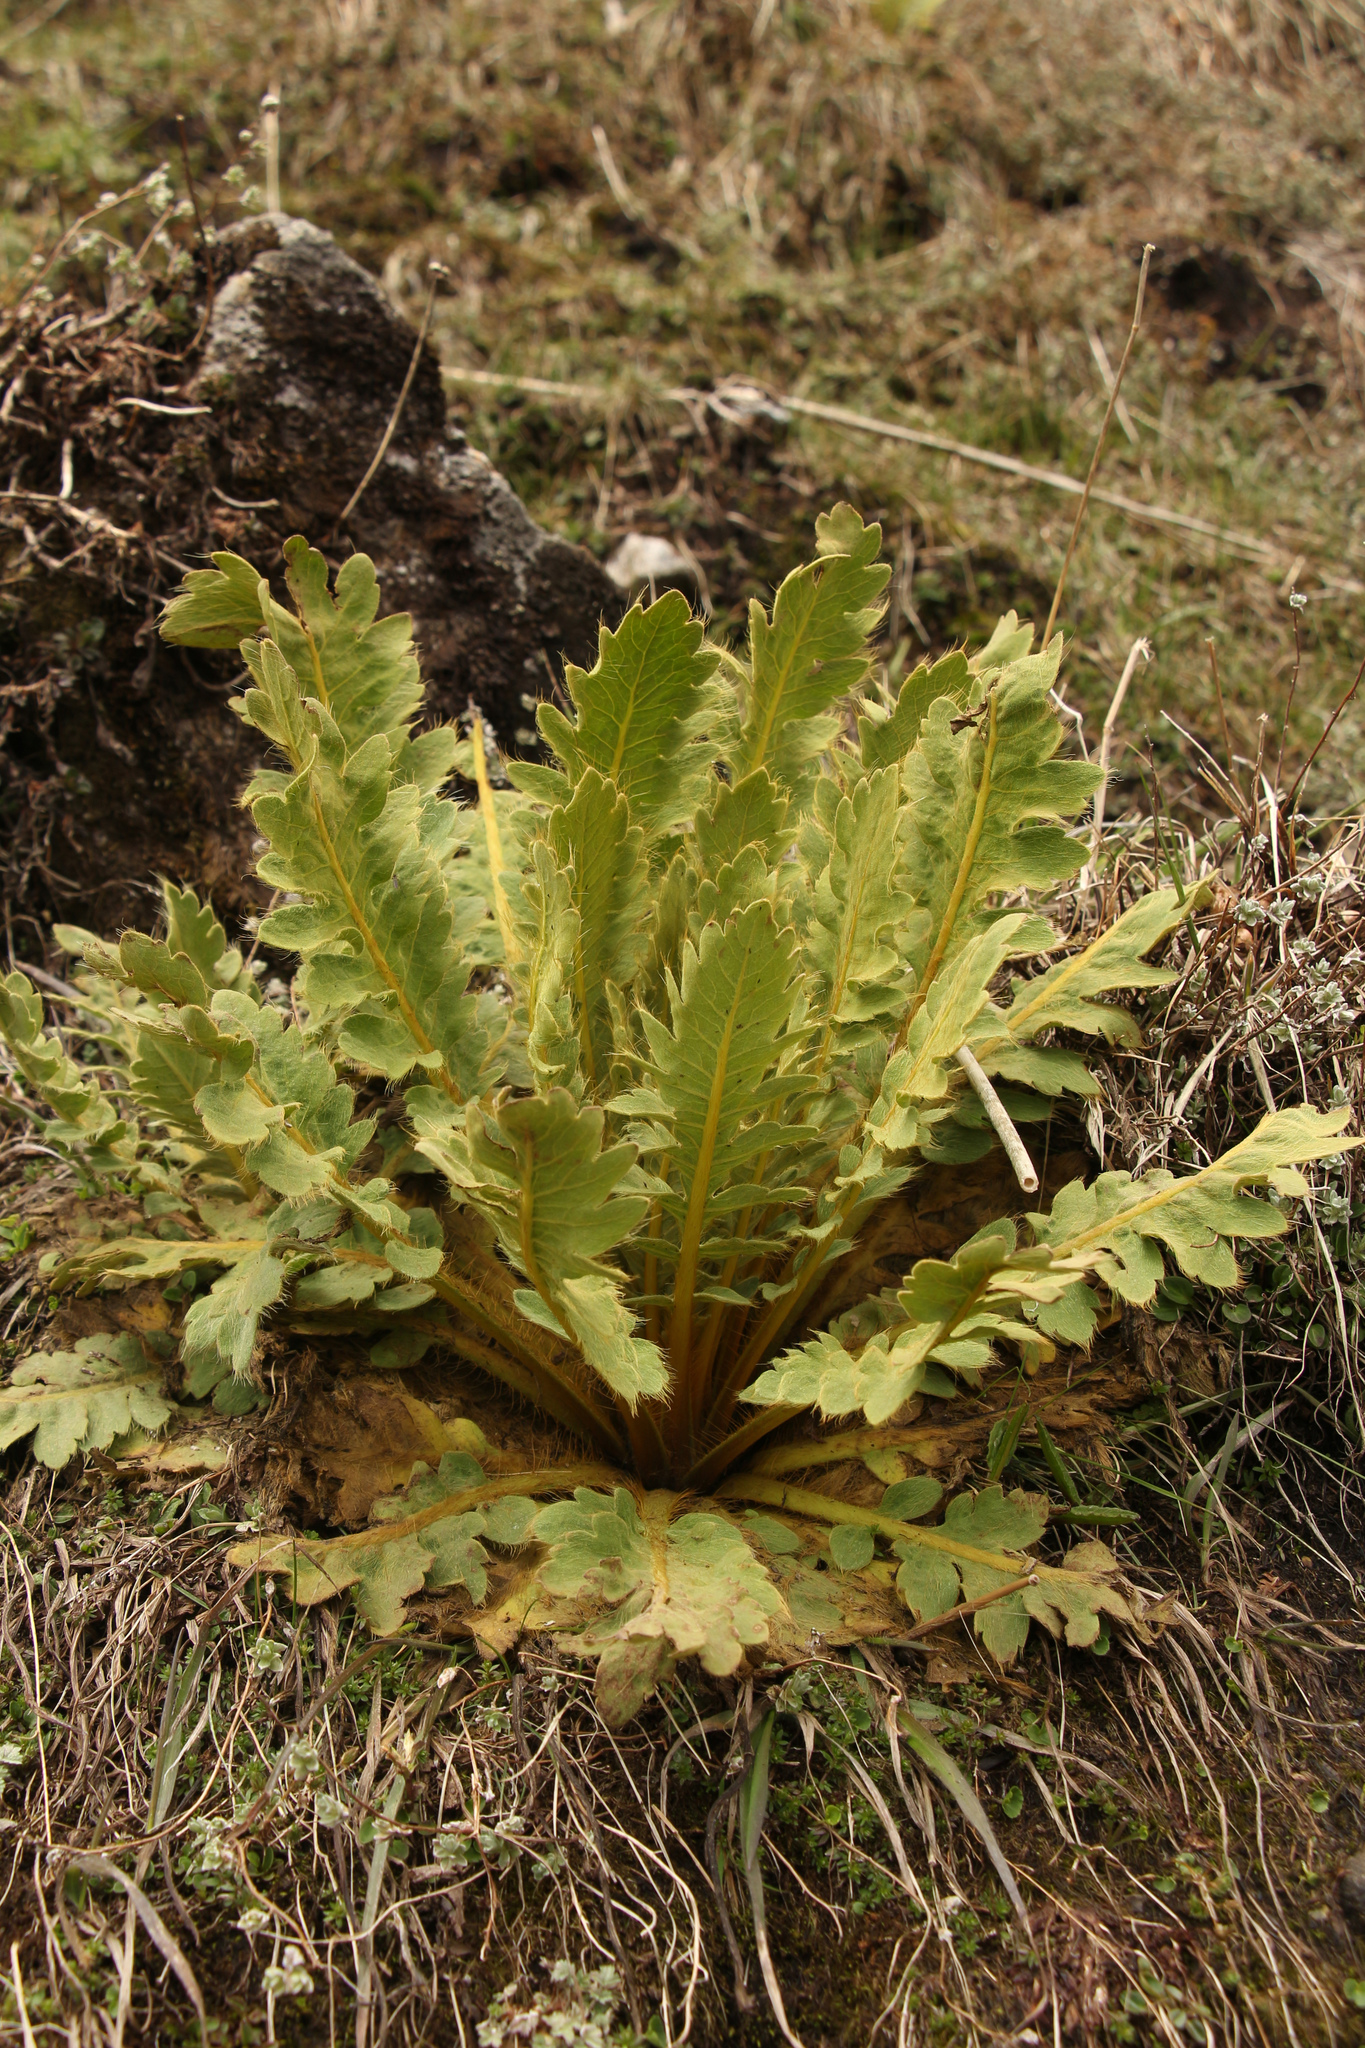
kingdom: Plantae
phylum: Tracheophyta
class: Magnoliopsida
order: Ranunculales
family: Papaveraceae
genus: Meconopsis
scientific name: Meconopsis paniculata
